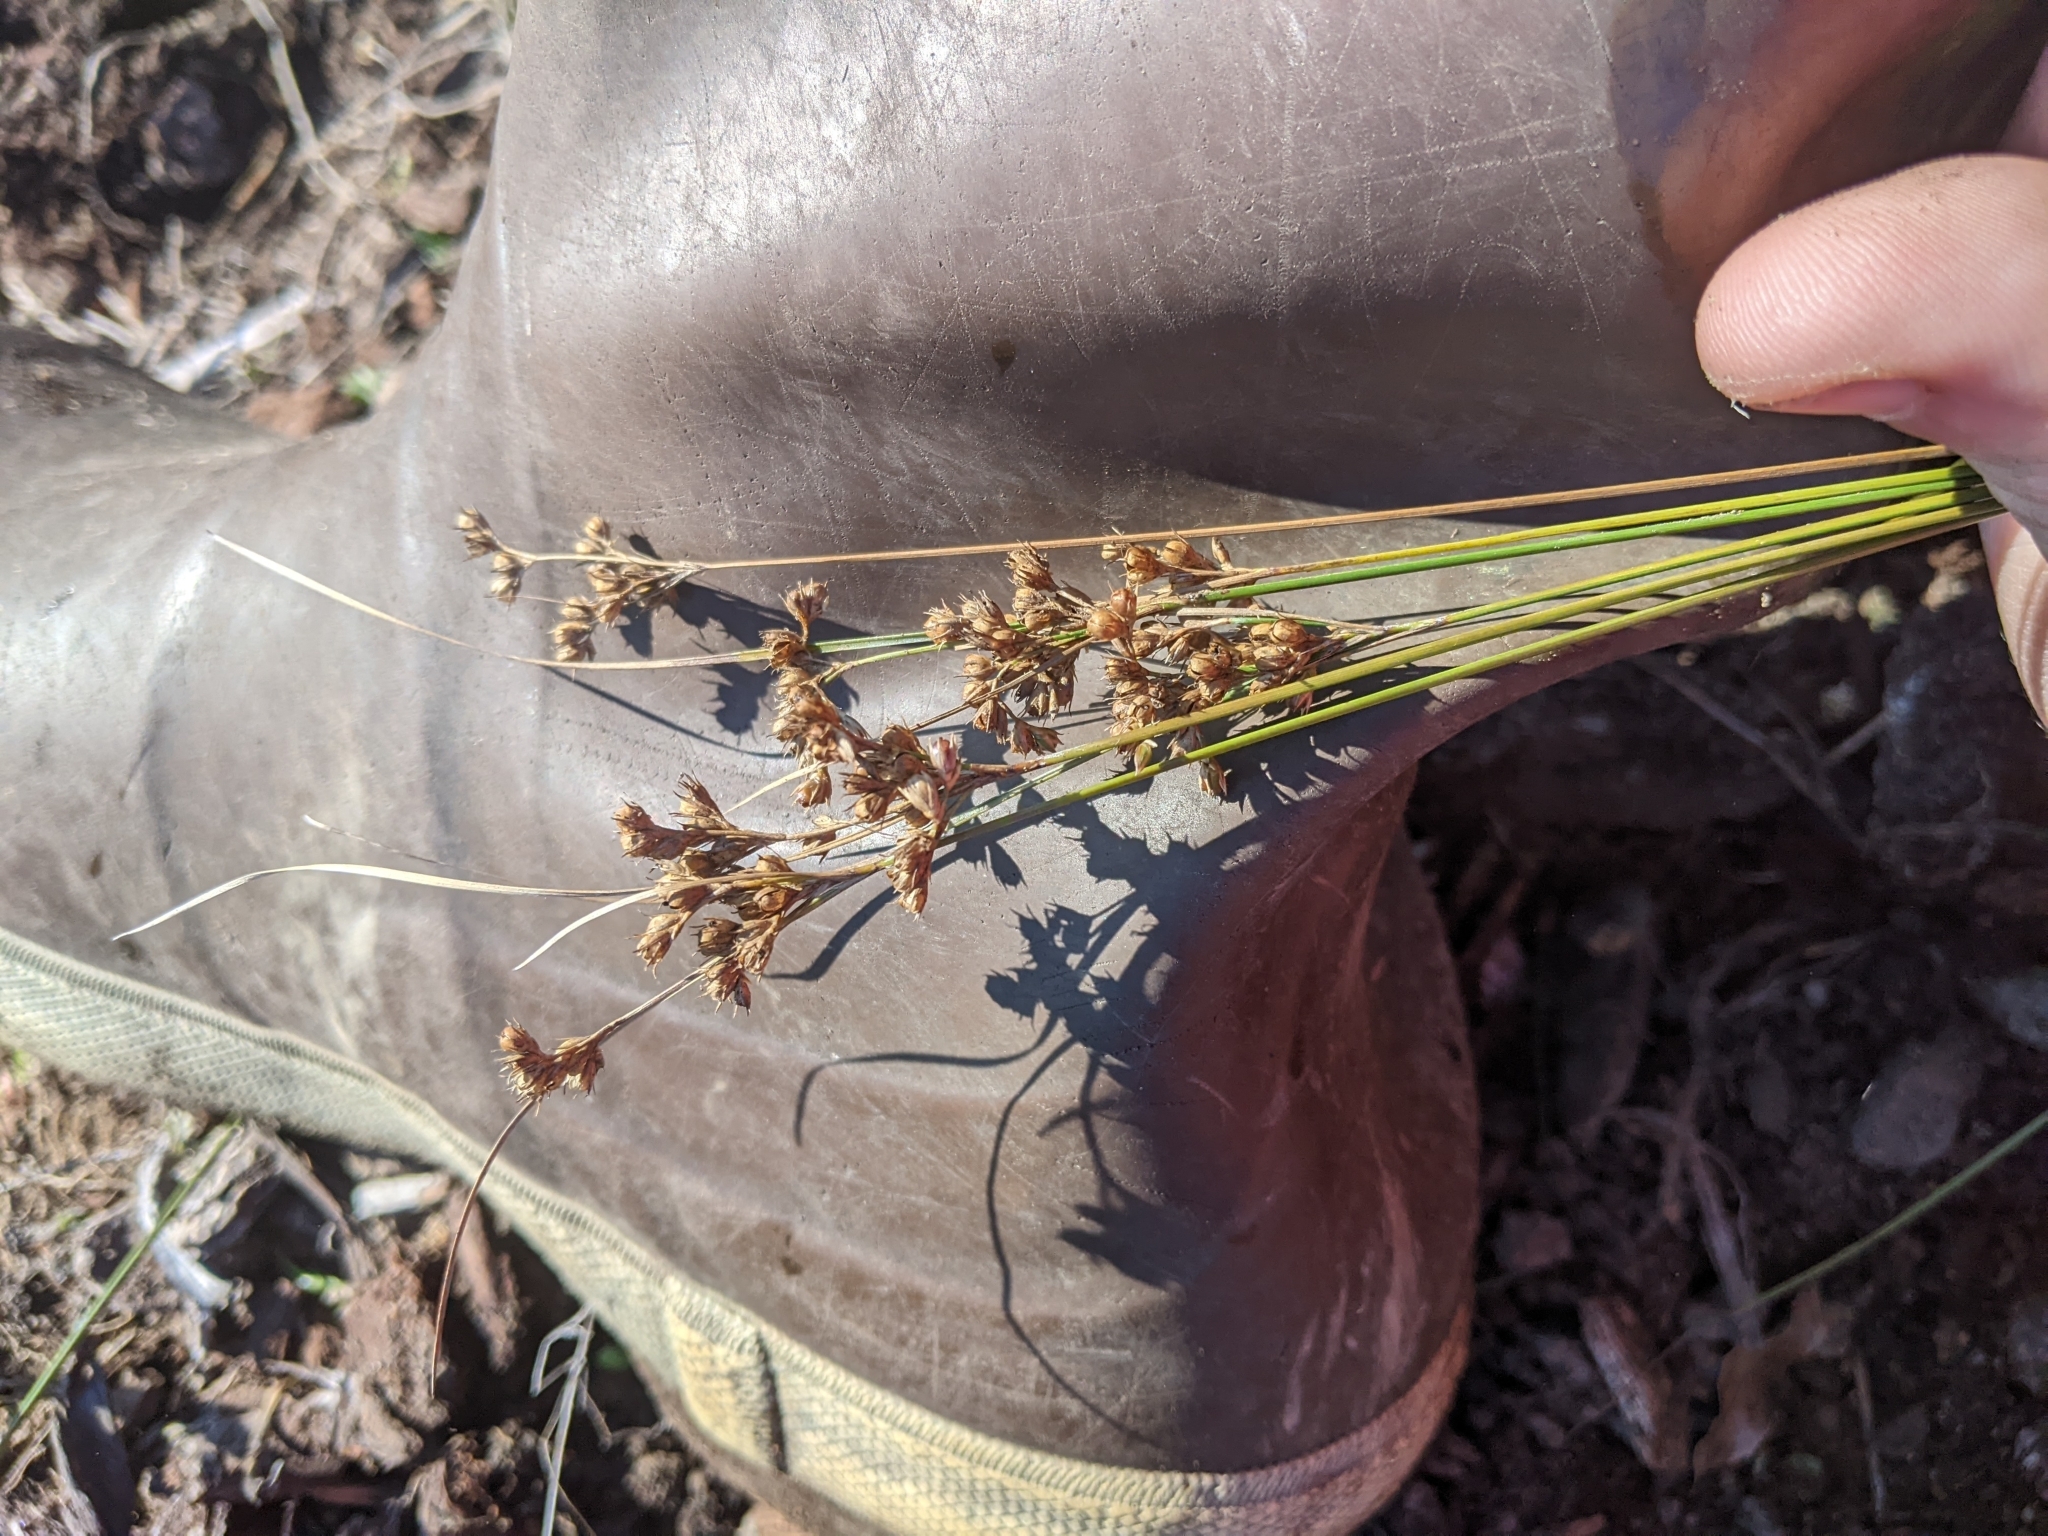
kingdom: Plantae
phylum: Tracheophyta
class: Liliopsida
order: Poales
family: Juncaceae
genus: Juncus
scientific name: Juncus tenuis
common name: Slender rush
